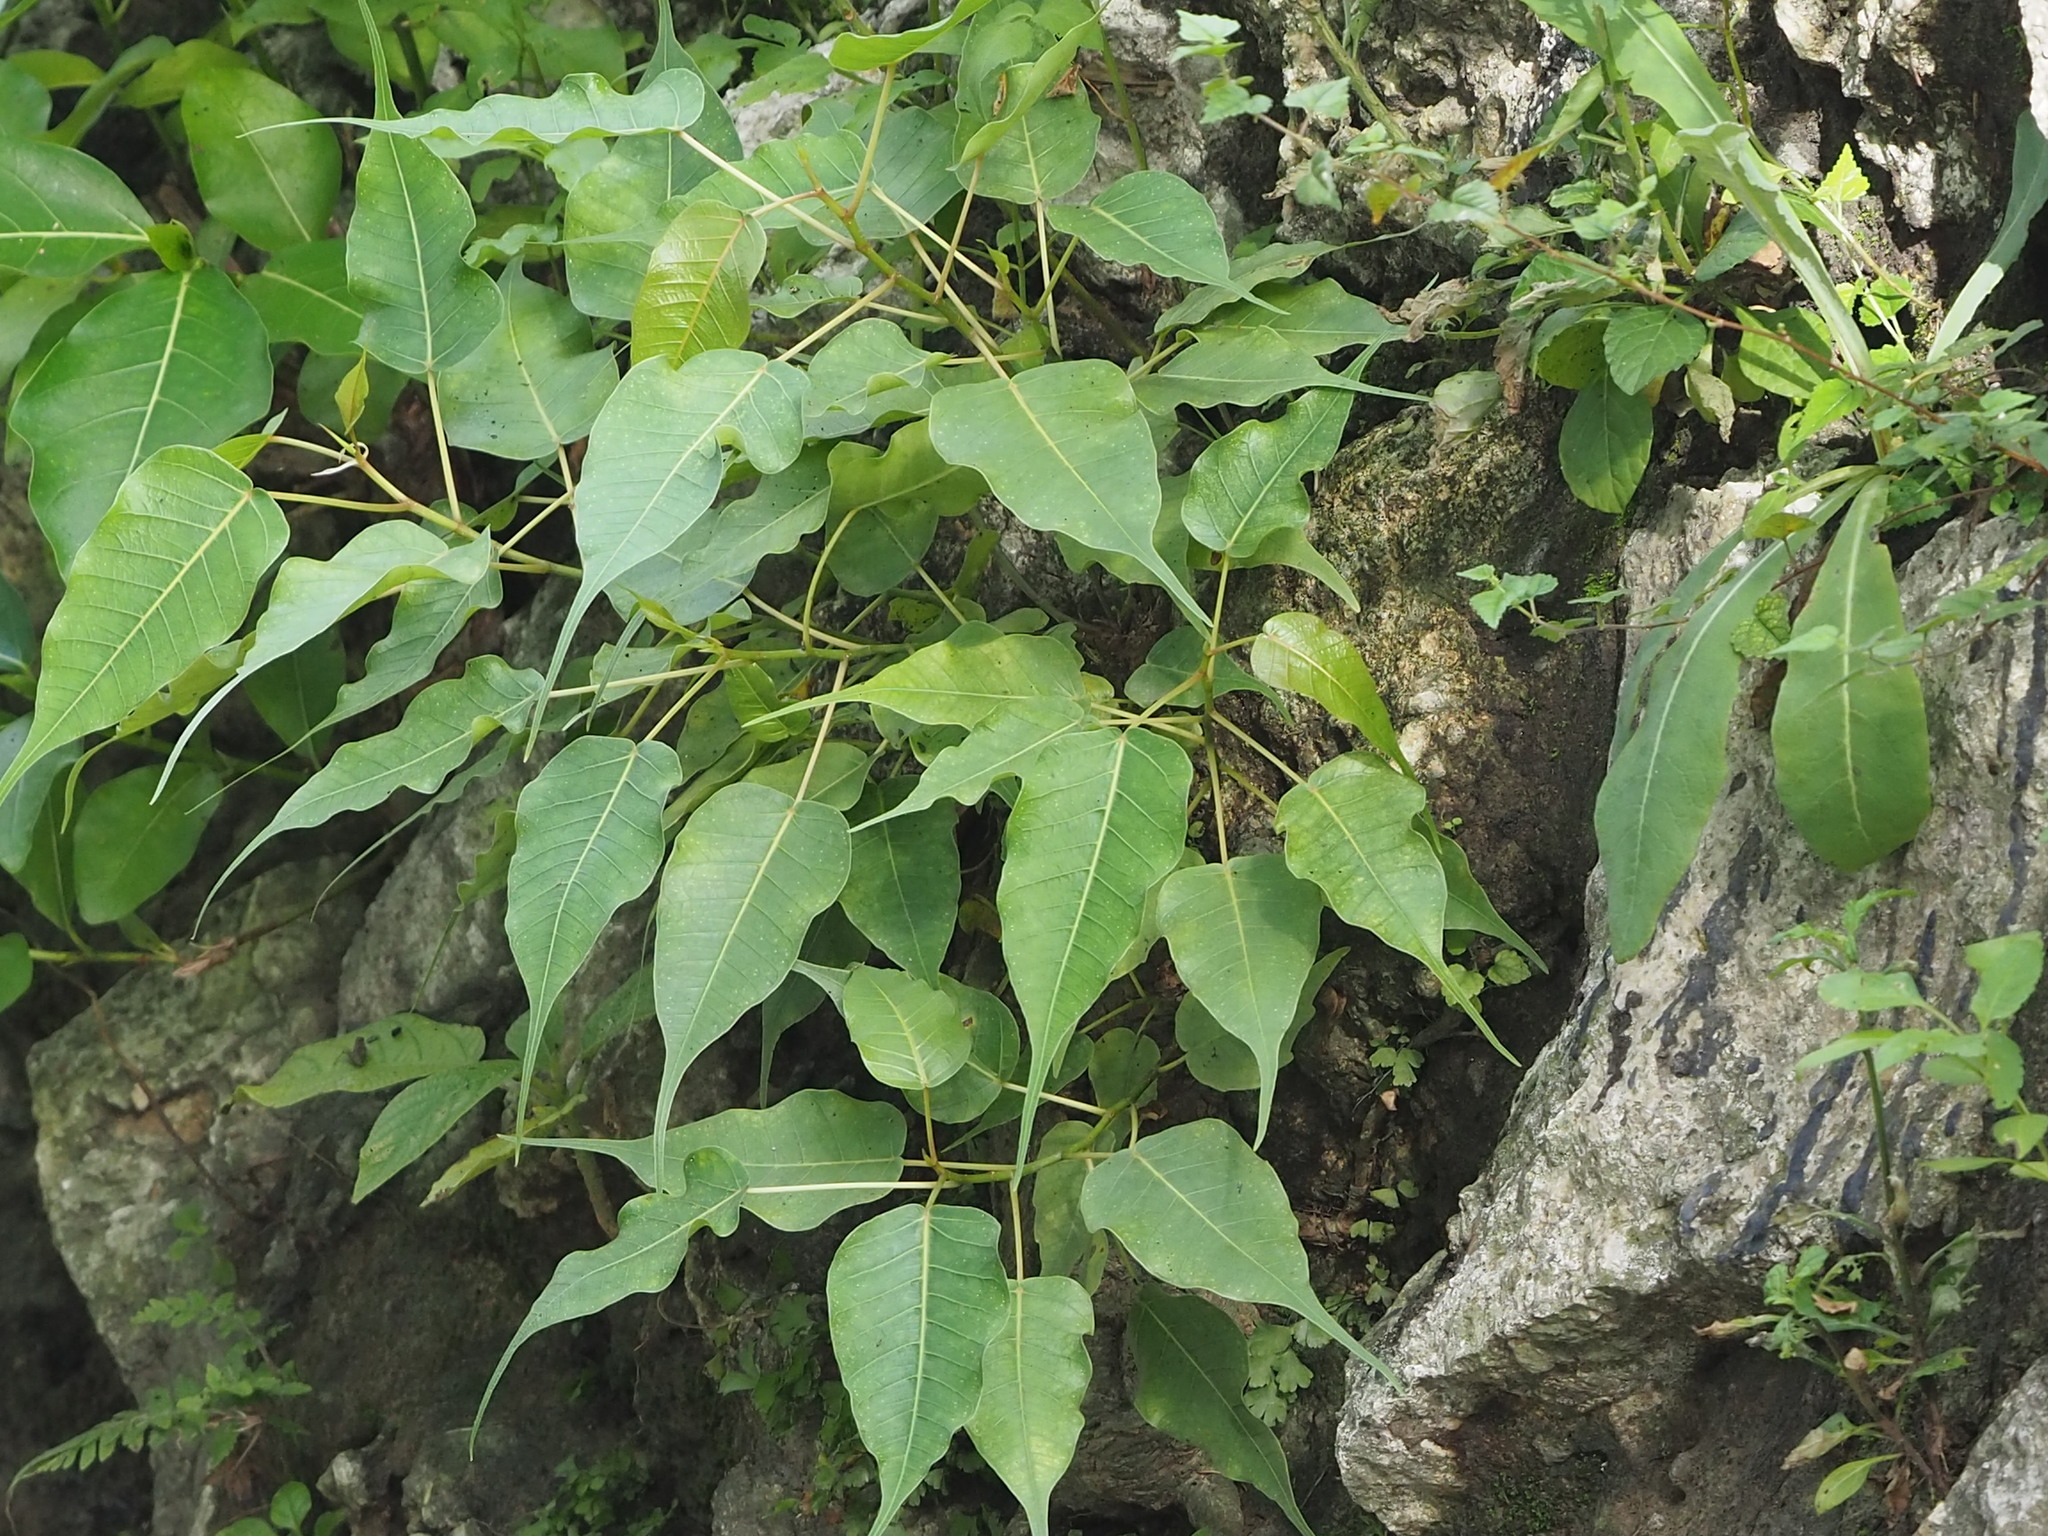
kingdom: Plantae
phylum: Tracheophyta
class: Magnoliopsida
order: Rosales
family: Moraceae
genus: Ficus
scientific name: Ficus religiosa
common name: Bodhi tree
